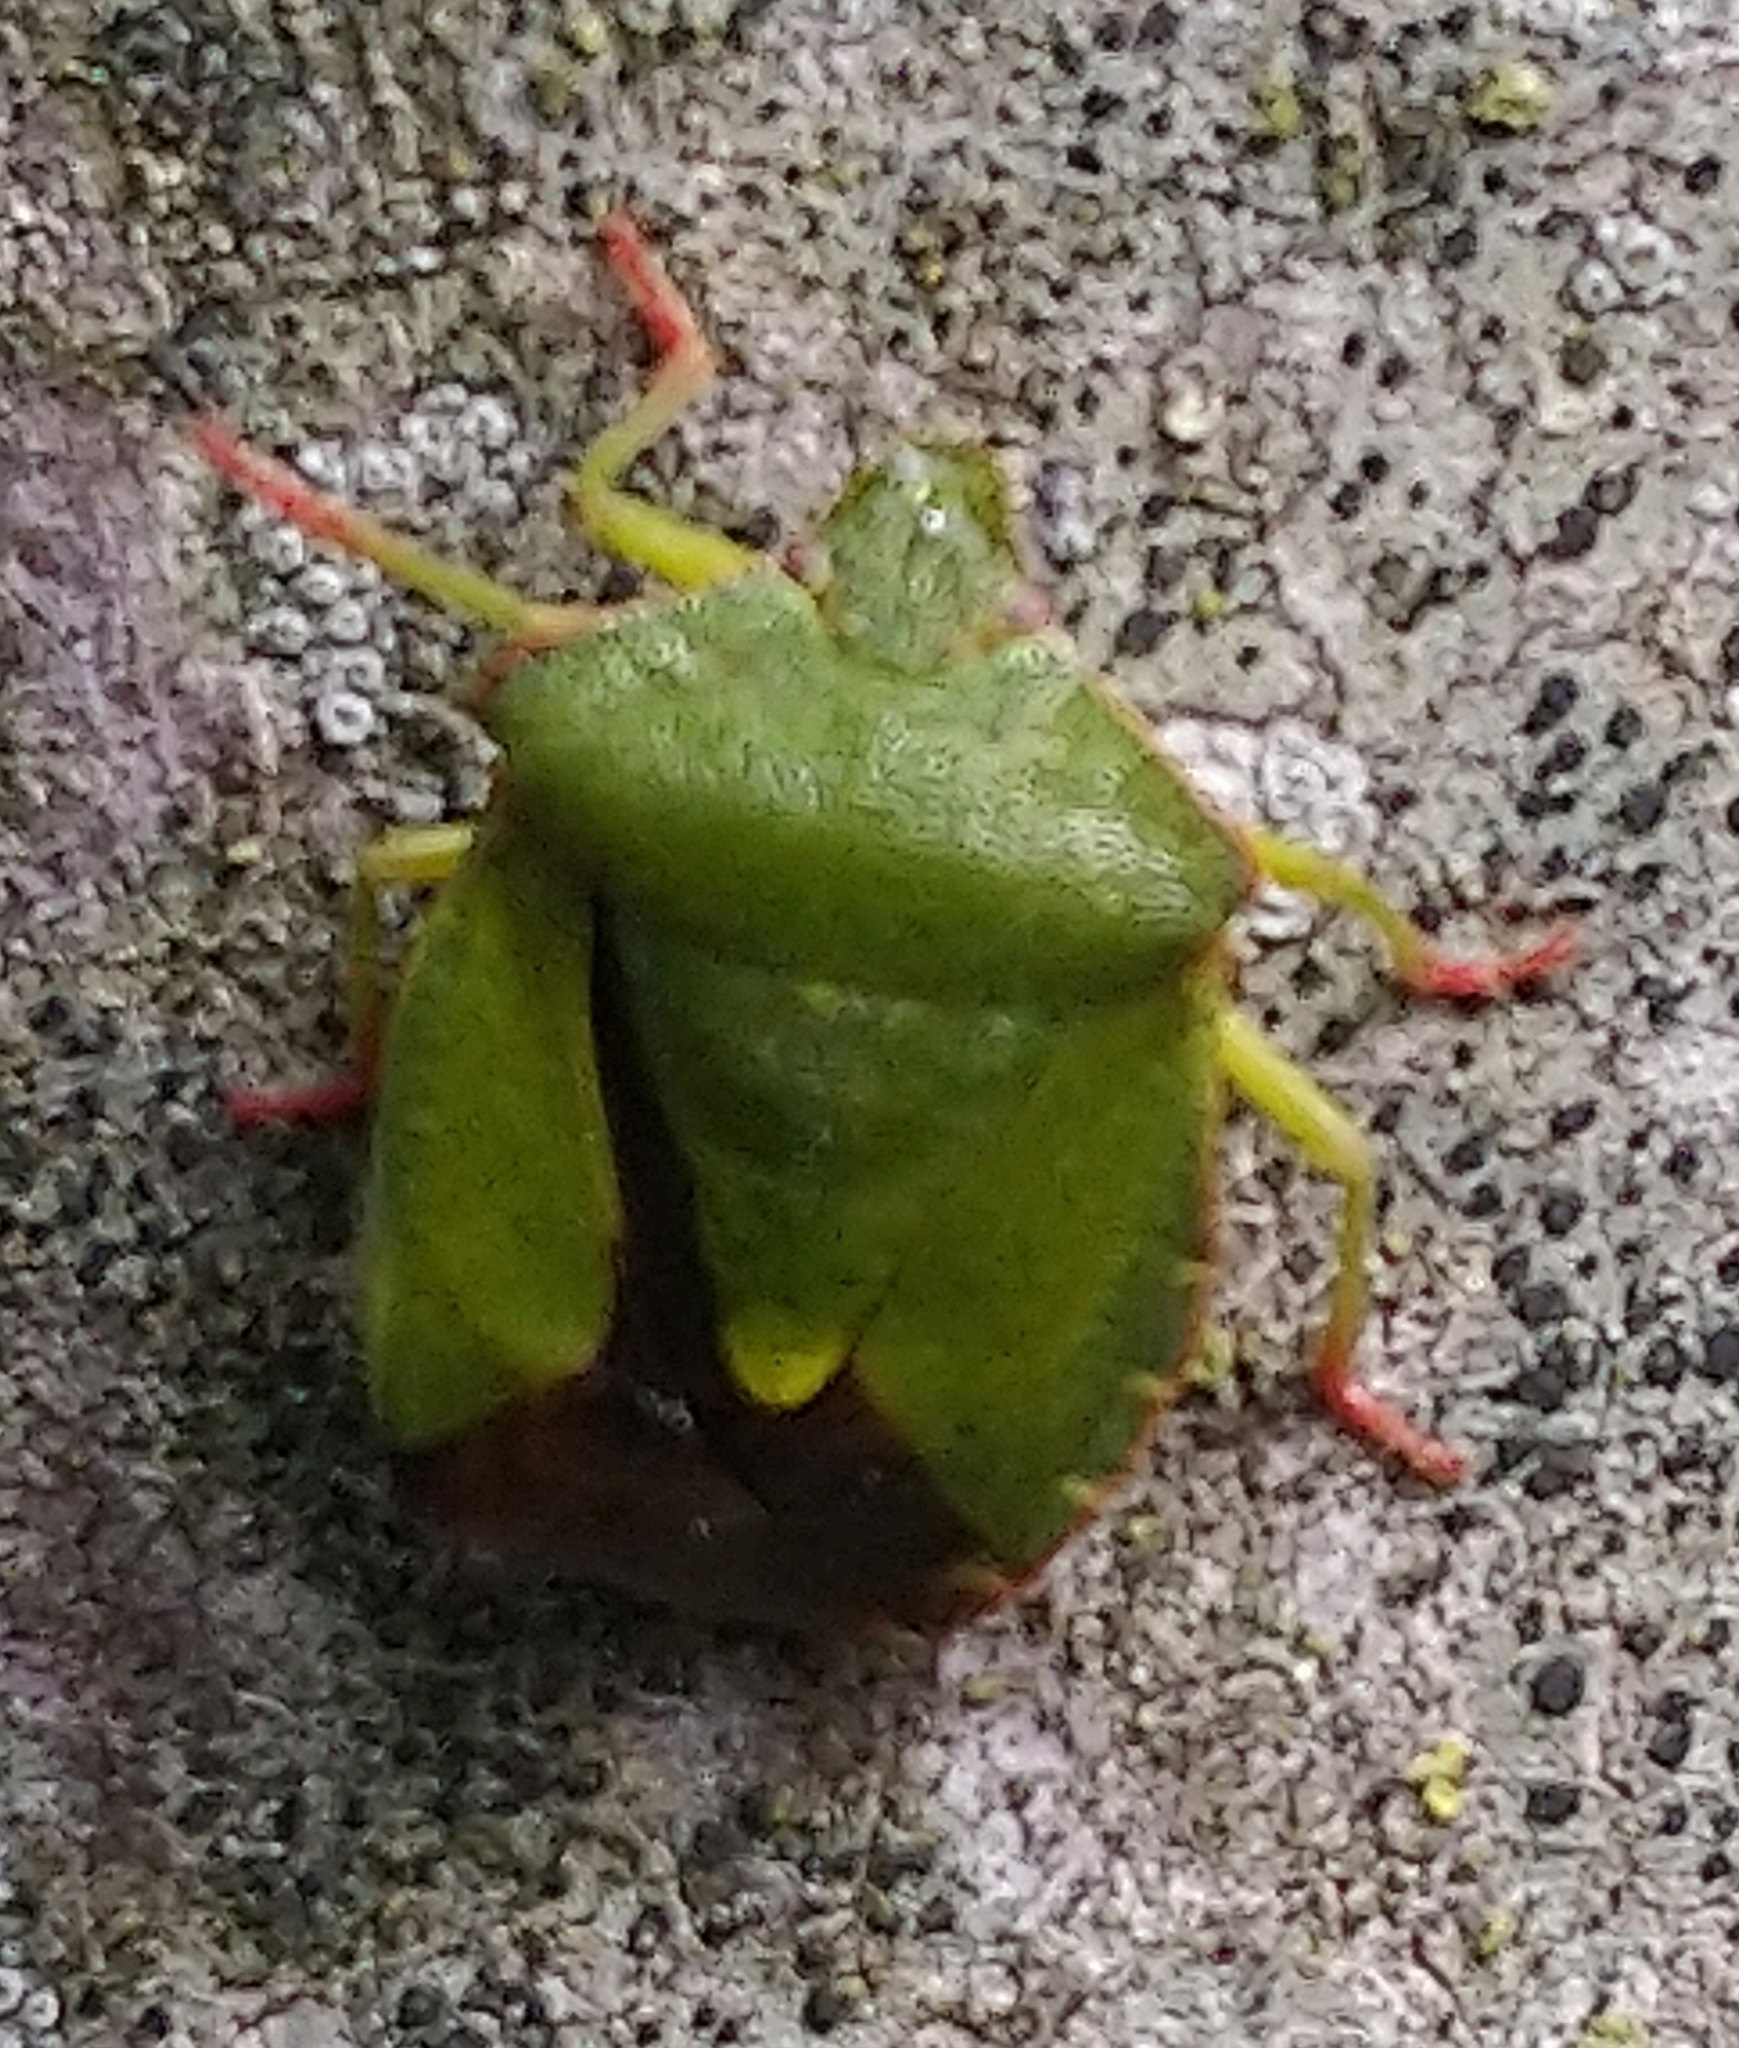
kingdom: Animalia
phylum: Arthropoda
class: Insecta
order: Hemiptera
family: Pentatomidae
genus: Palomena
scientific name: Palomena prasina
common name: Green shieldbug
